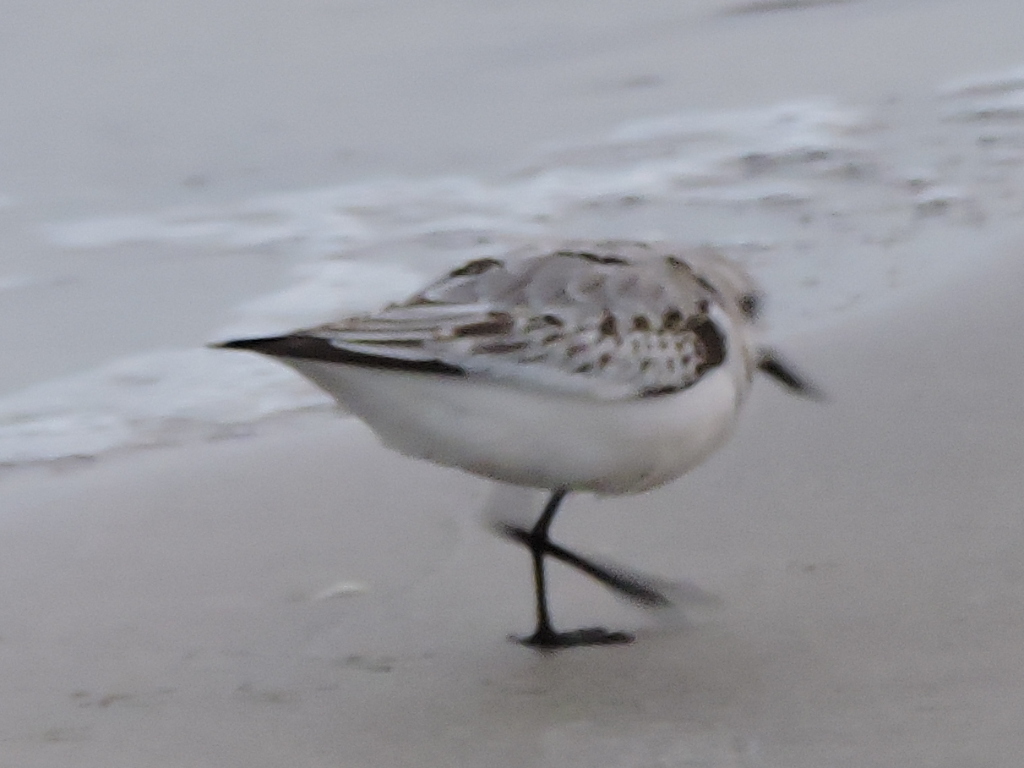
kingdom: Animalia
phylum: Chordata
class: Aves
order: Charadriiformes
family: Scolopacidae
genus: Calidris
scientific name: Calidris alba
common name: Sanderling
